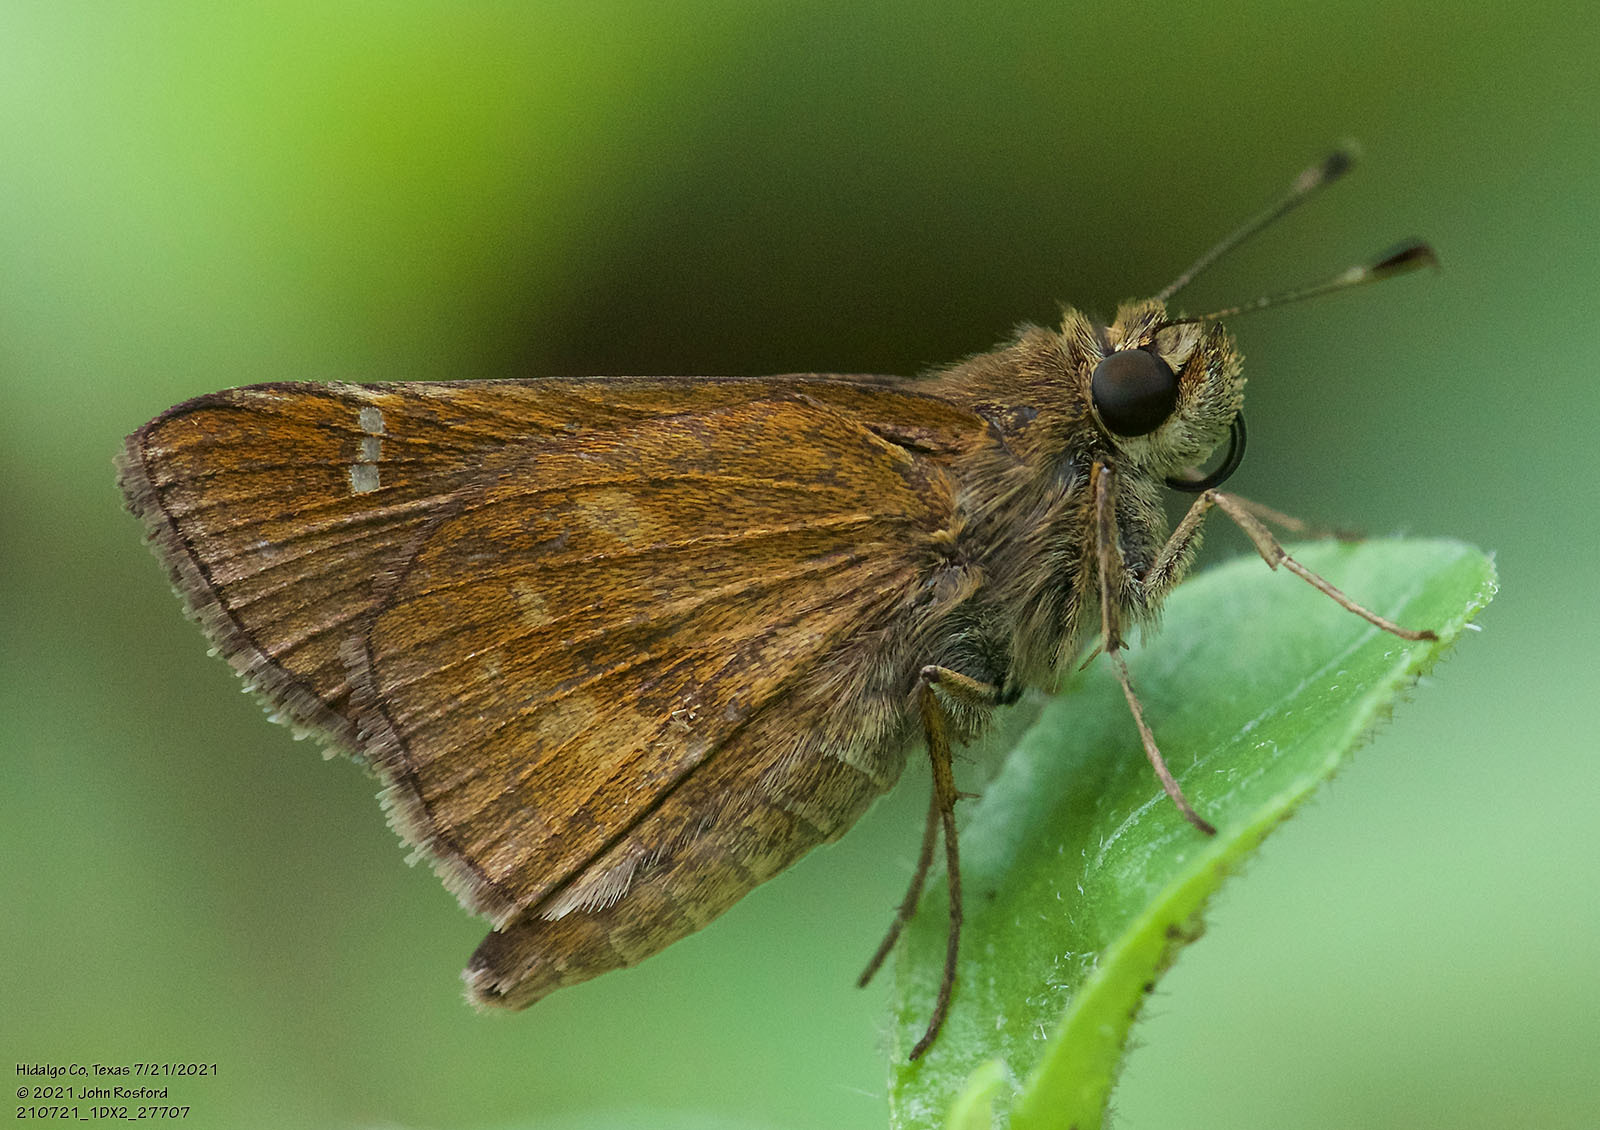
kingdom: Animalia
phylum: Arthropoda
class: Insecta
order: Lepidoptera
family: Hesperiidae
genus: Lerema
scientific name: Lerema accius
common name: Clouded skipper
